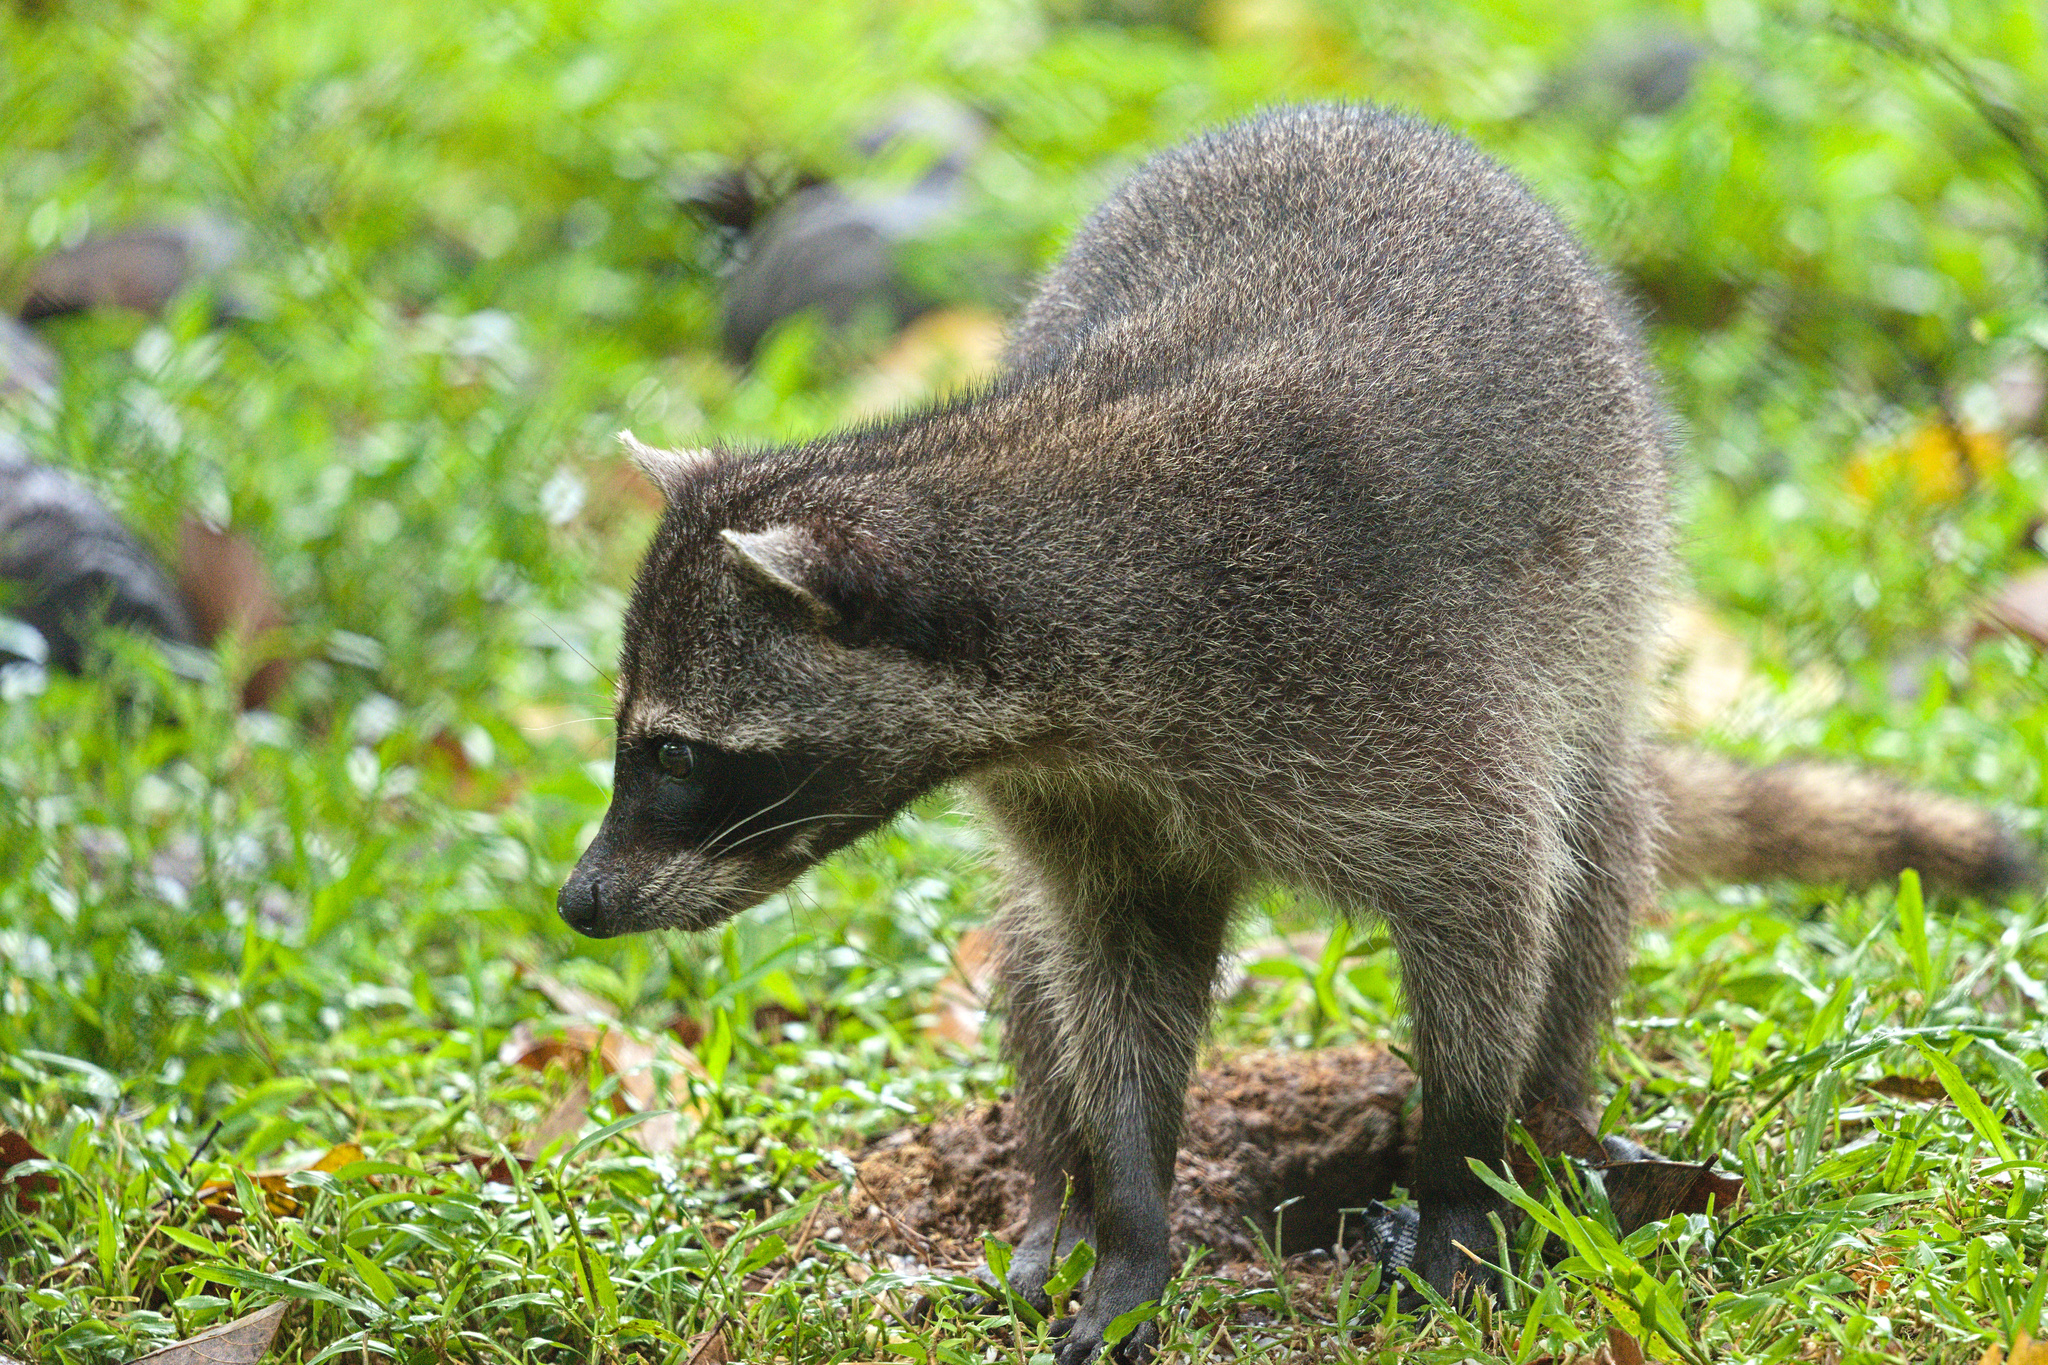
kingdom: Animalia
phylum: Chordata
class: Mammalia
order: Carnivora
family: Procyonidae
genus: Procyon
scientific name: Procyon lotor
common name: Raccoon
